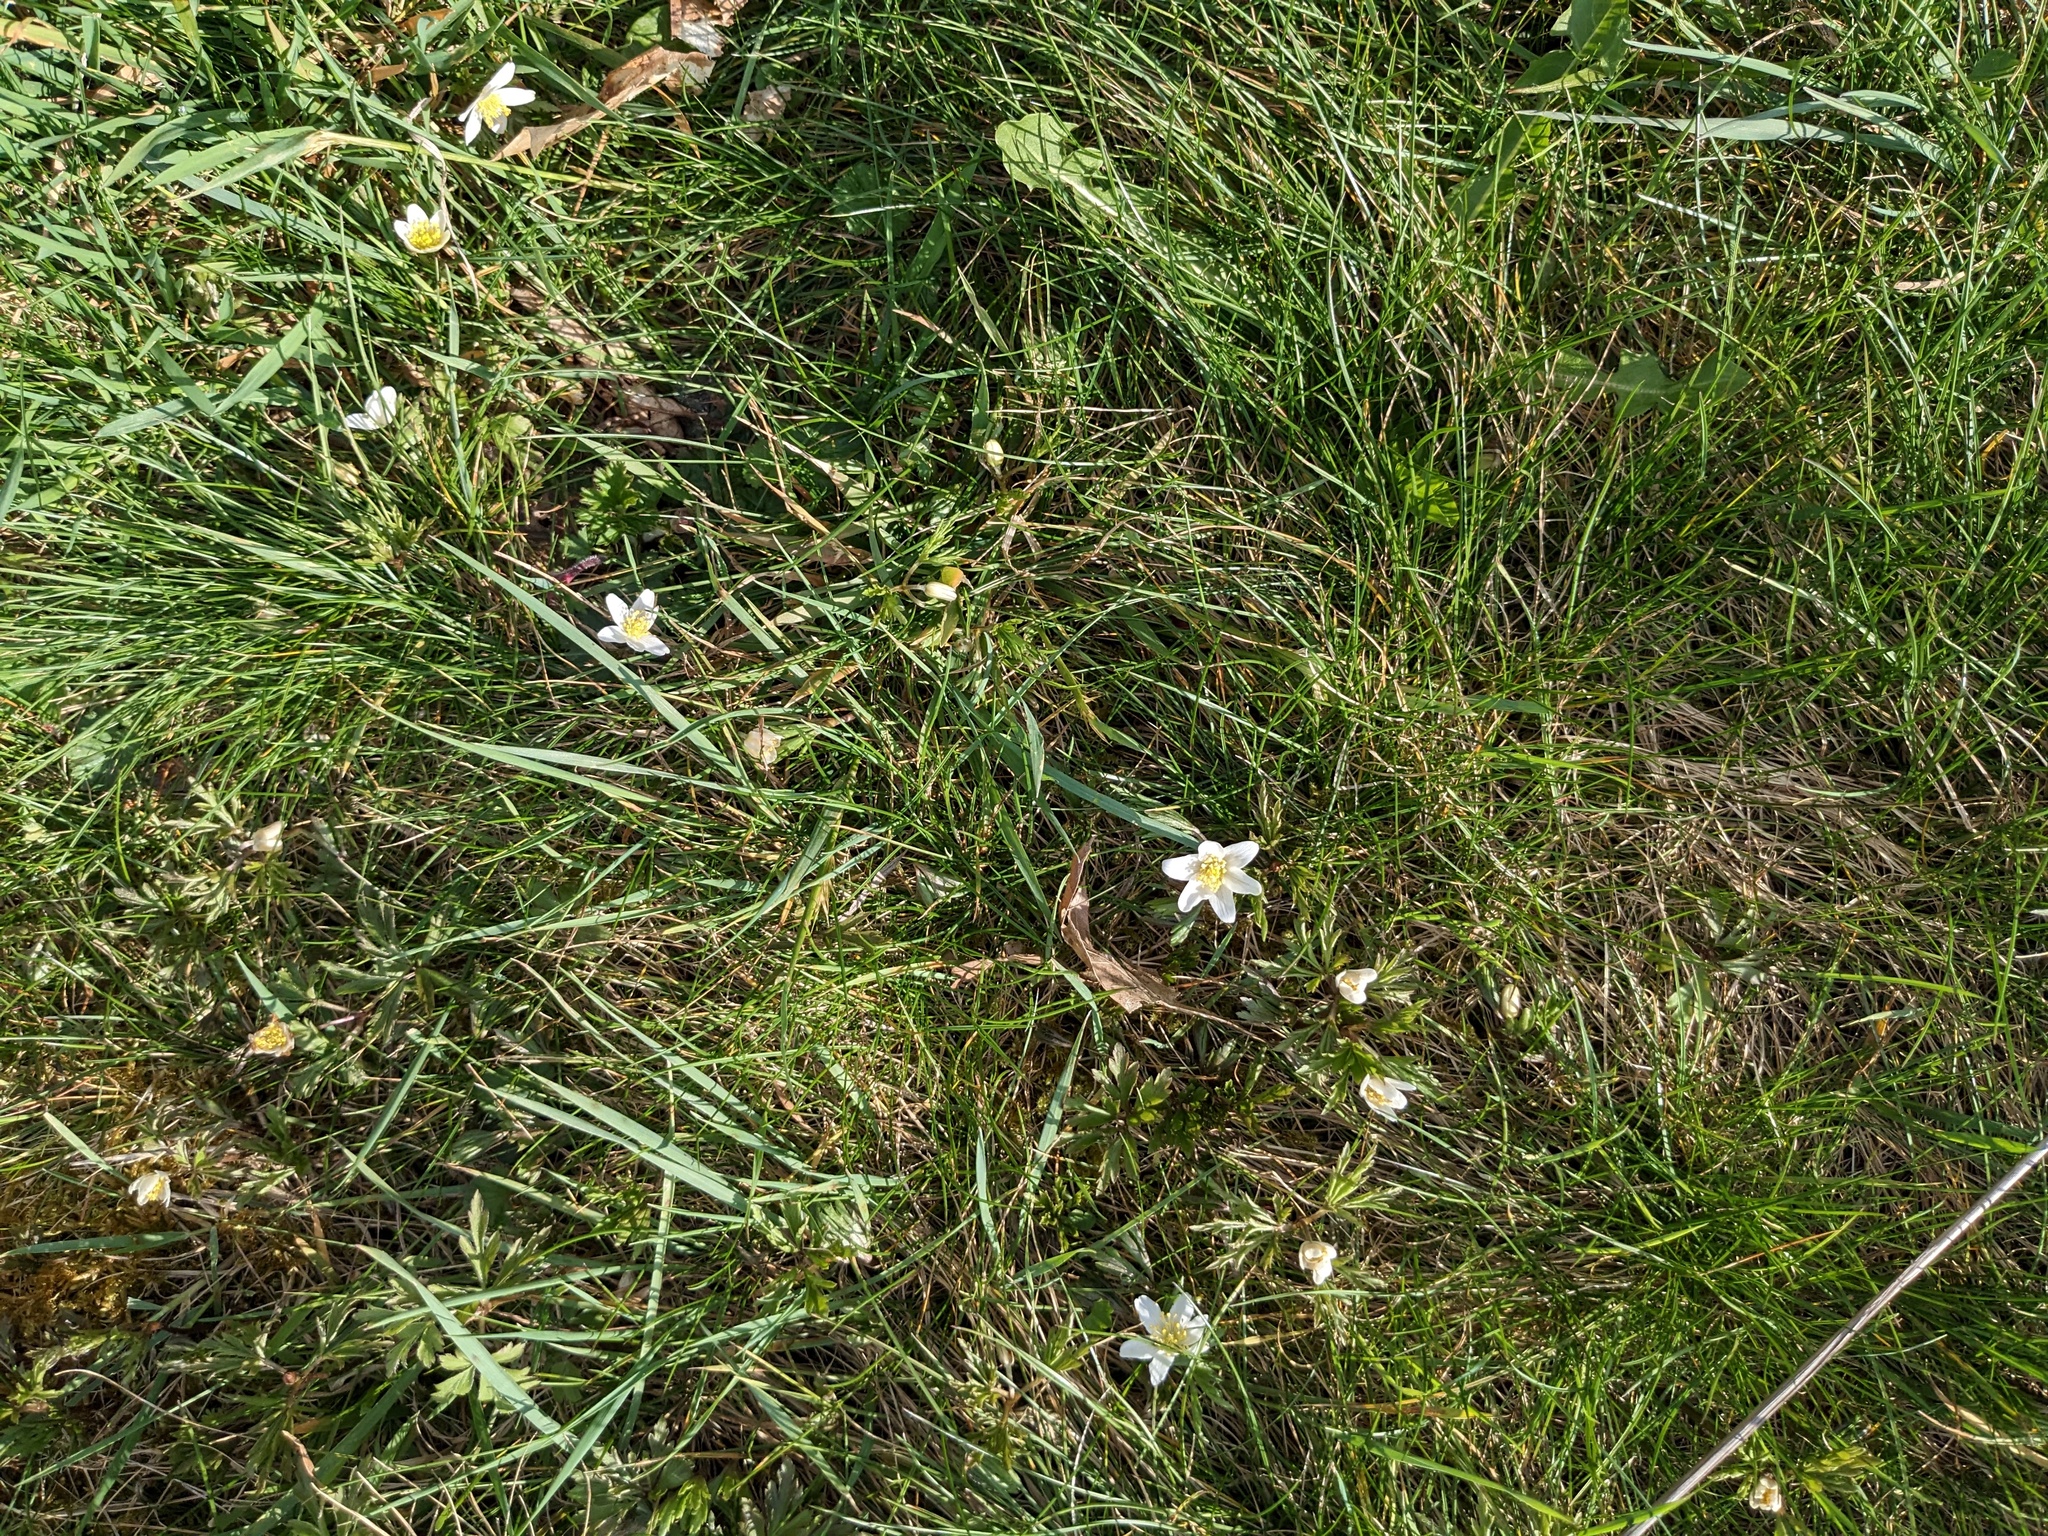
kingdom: Plantae
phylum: Tracheophyta
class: Magnoliopsida
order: Ranunculales
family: Ranunculaceae
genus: Anemone
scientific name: Anemone nemorosa
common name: Wood anemone
